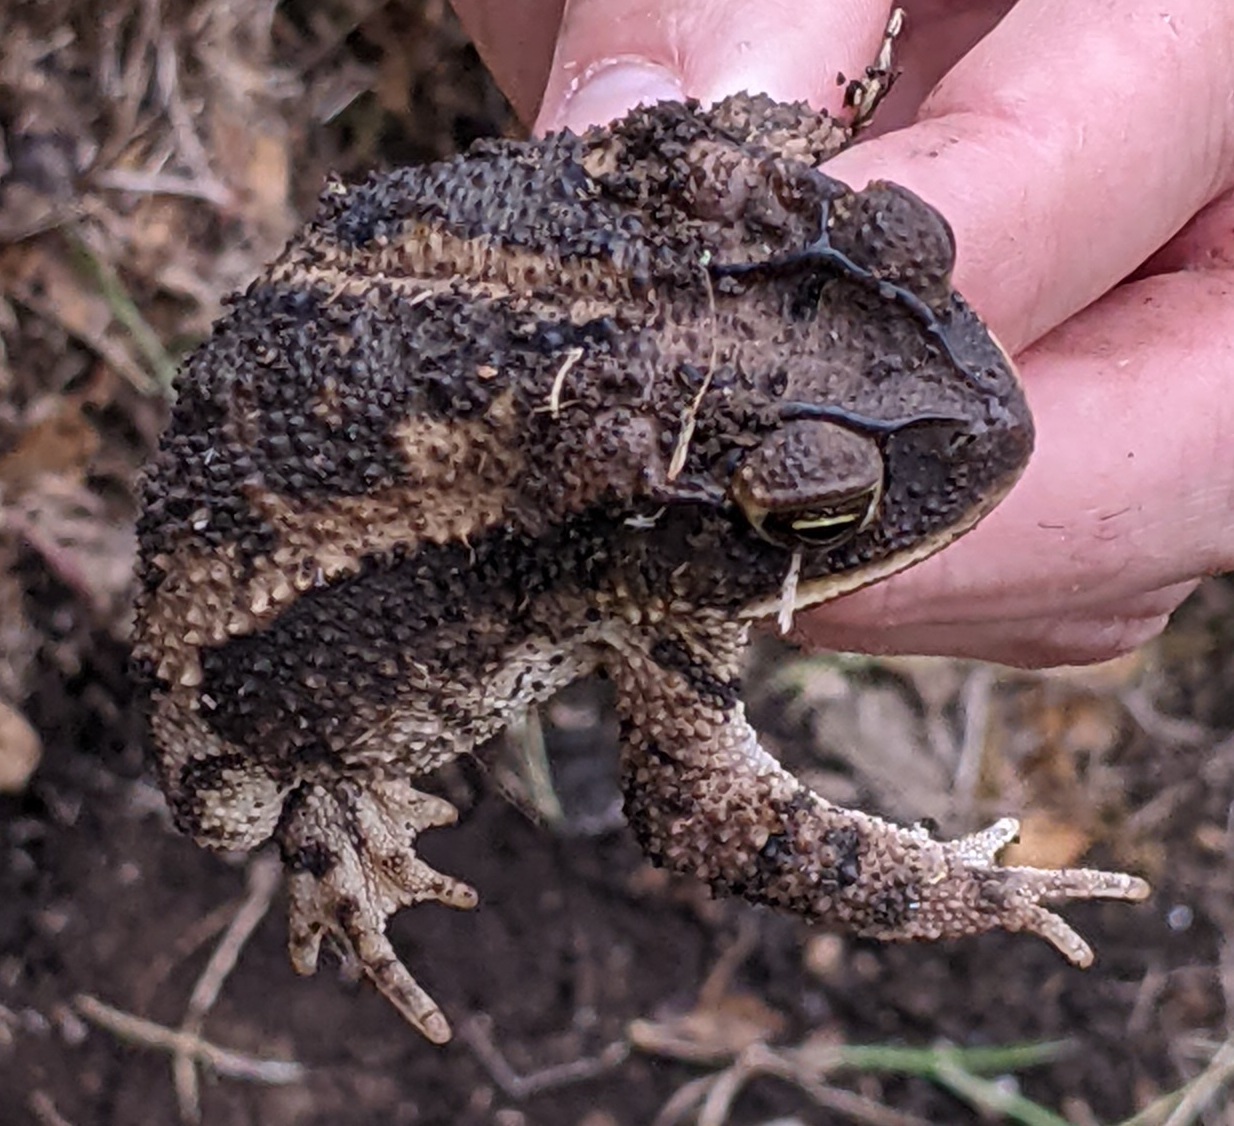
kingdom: Animalia
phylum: Chordata
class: Amphibia
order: Anura
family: Bufonidae
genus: Incilius
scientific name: Incilius nebulifer
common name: Gulf coast toad
